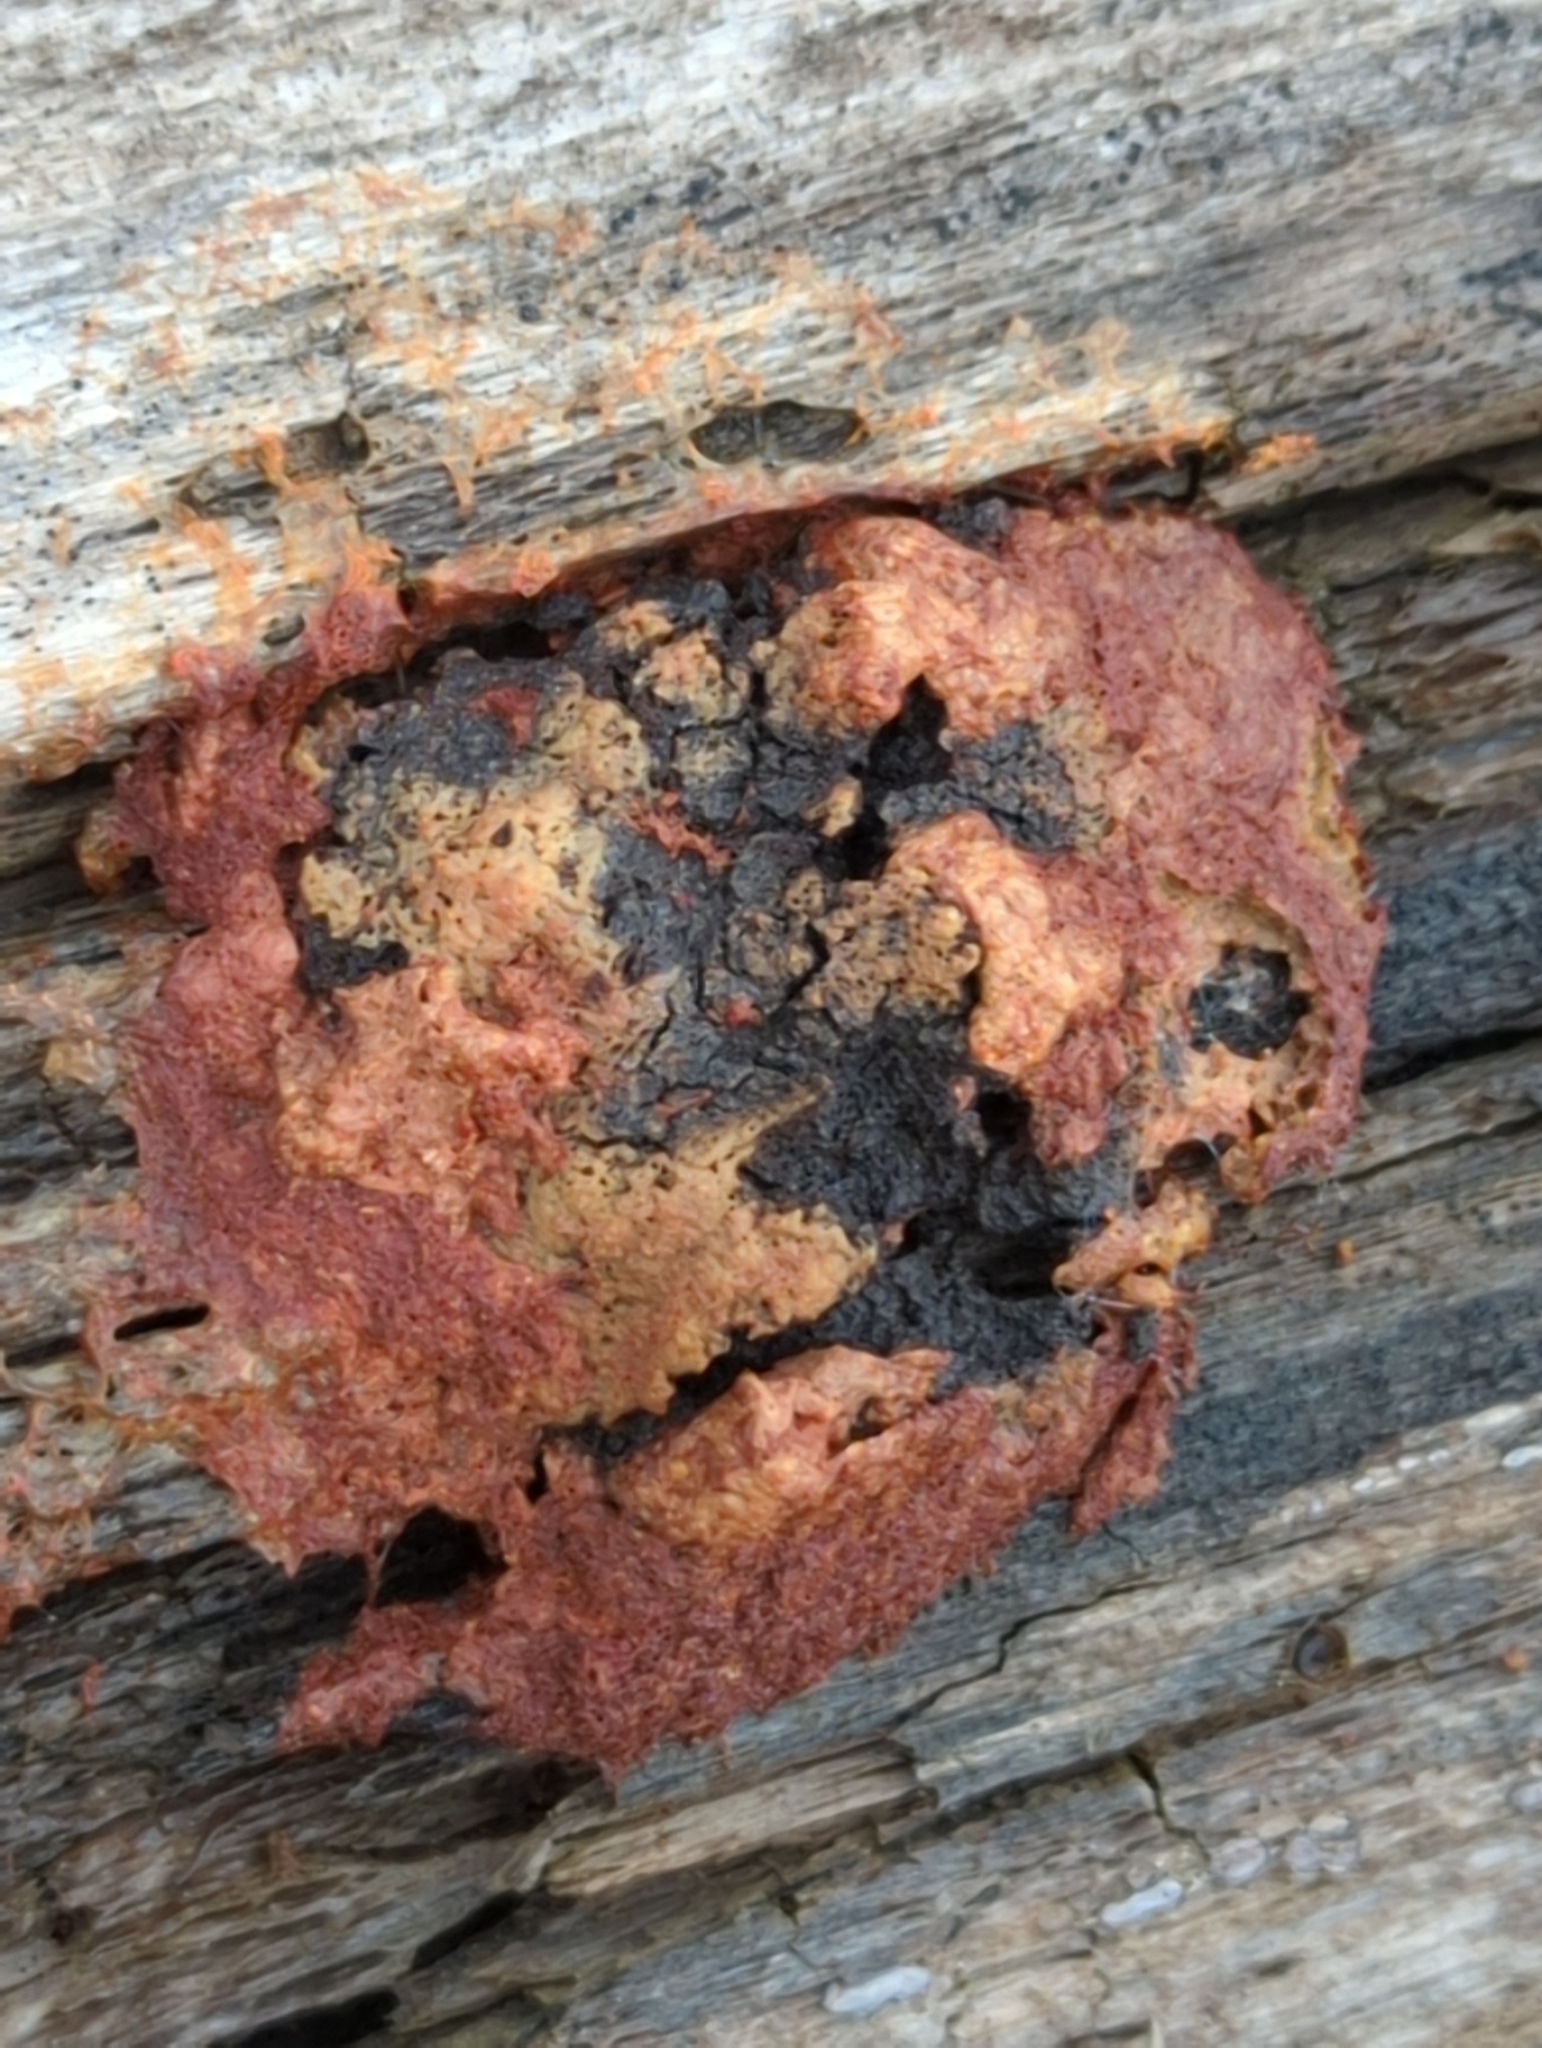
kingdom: Protozoa
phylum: Mycetozoa
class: Myxomycetes
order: Physarales
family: Physaraceae
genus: Fuligo
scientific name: Fuligo septica
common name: Dog vomit slime mold
